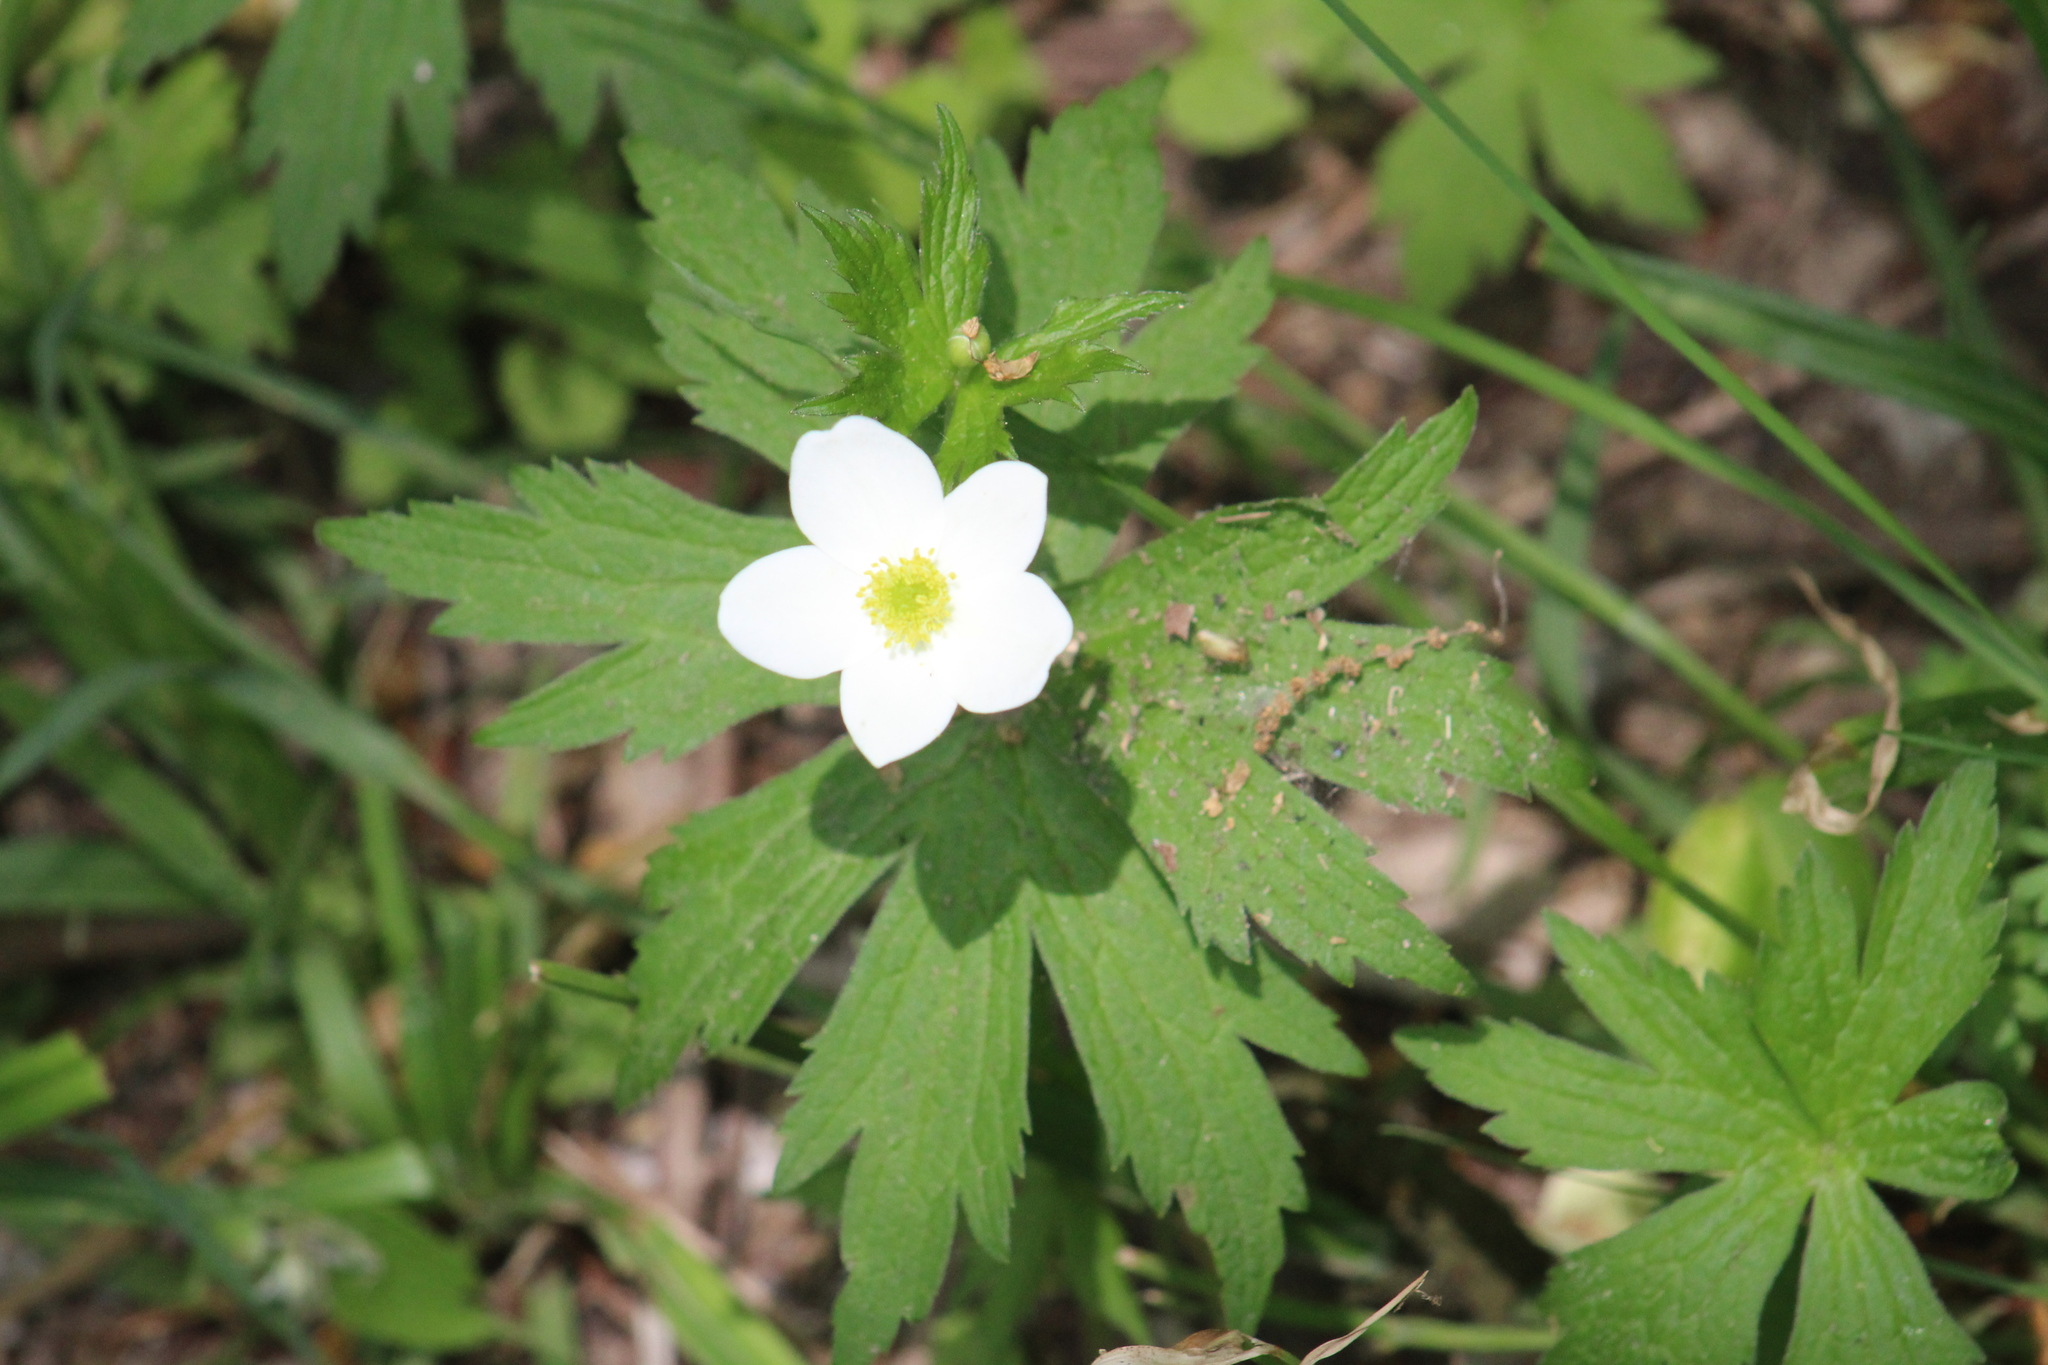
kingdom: Plantae
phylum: Tracheophyta
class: Magnoliopsida
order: Ranunculales
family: Ranunculaceae
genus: Anemonastrum
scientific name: Anemonastrum canadense
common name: Canada anemone
